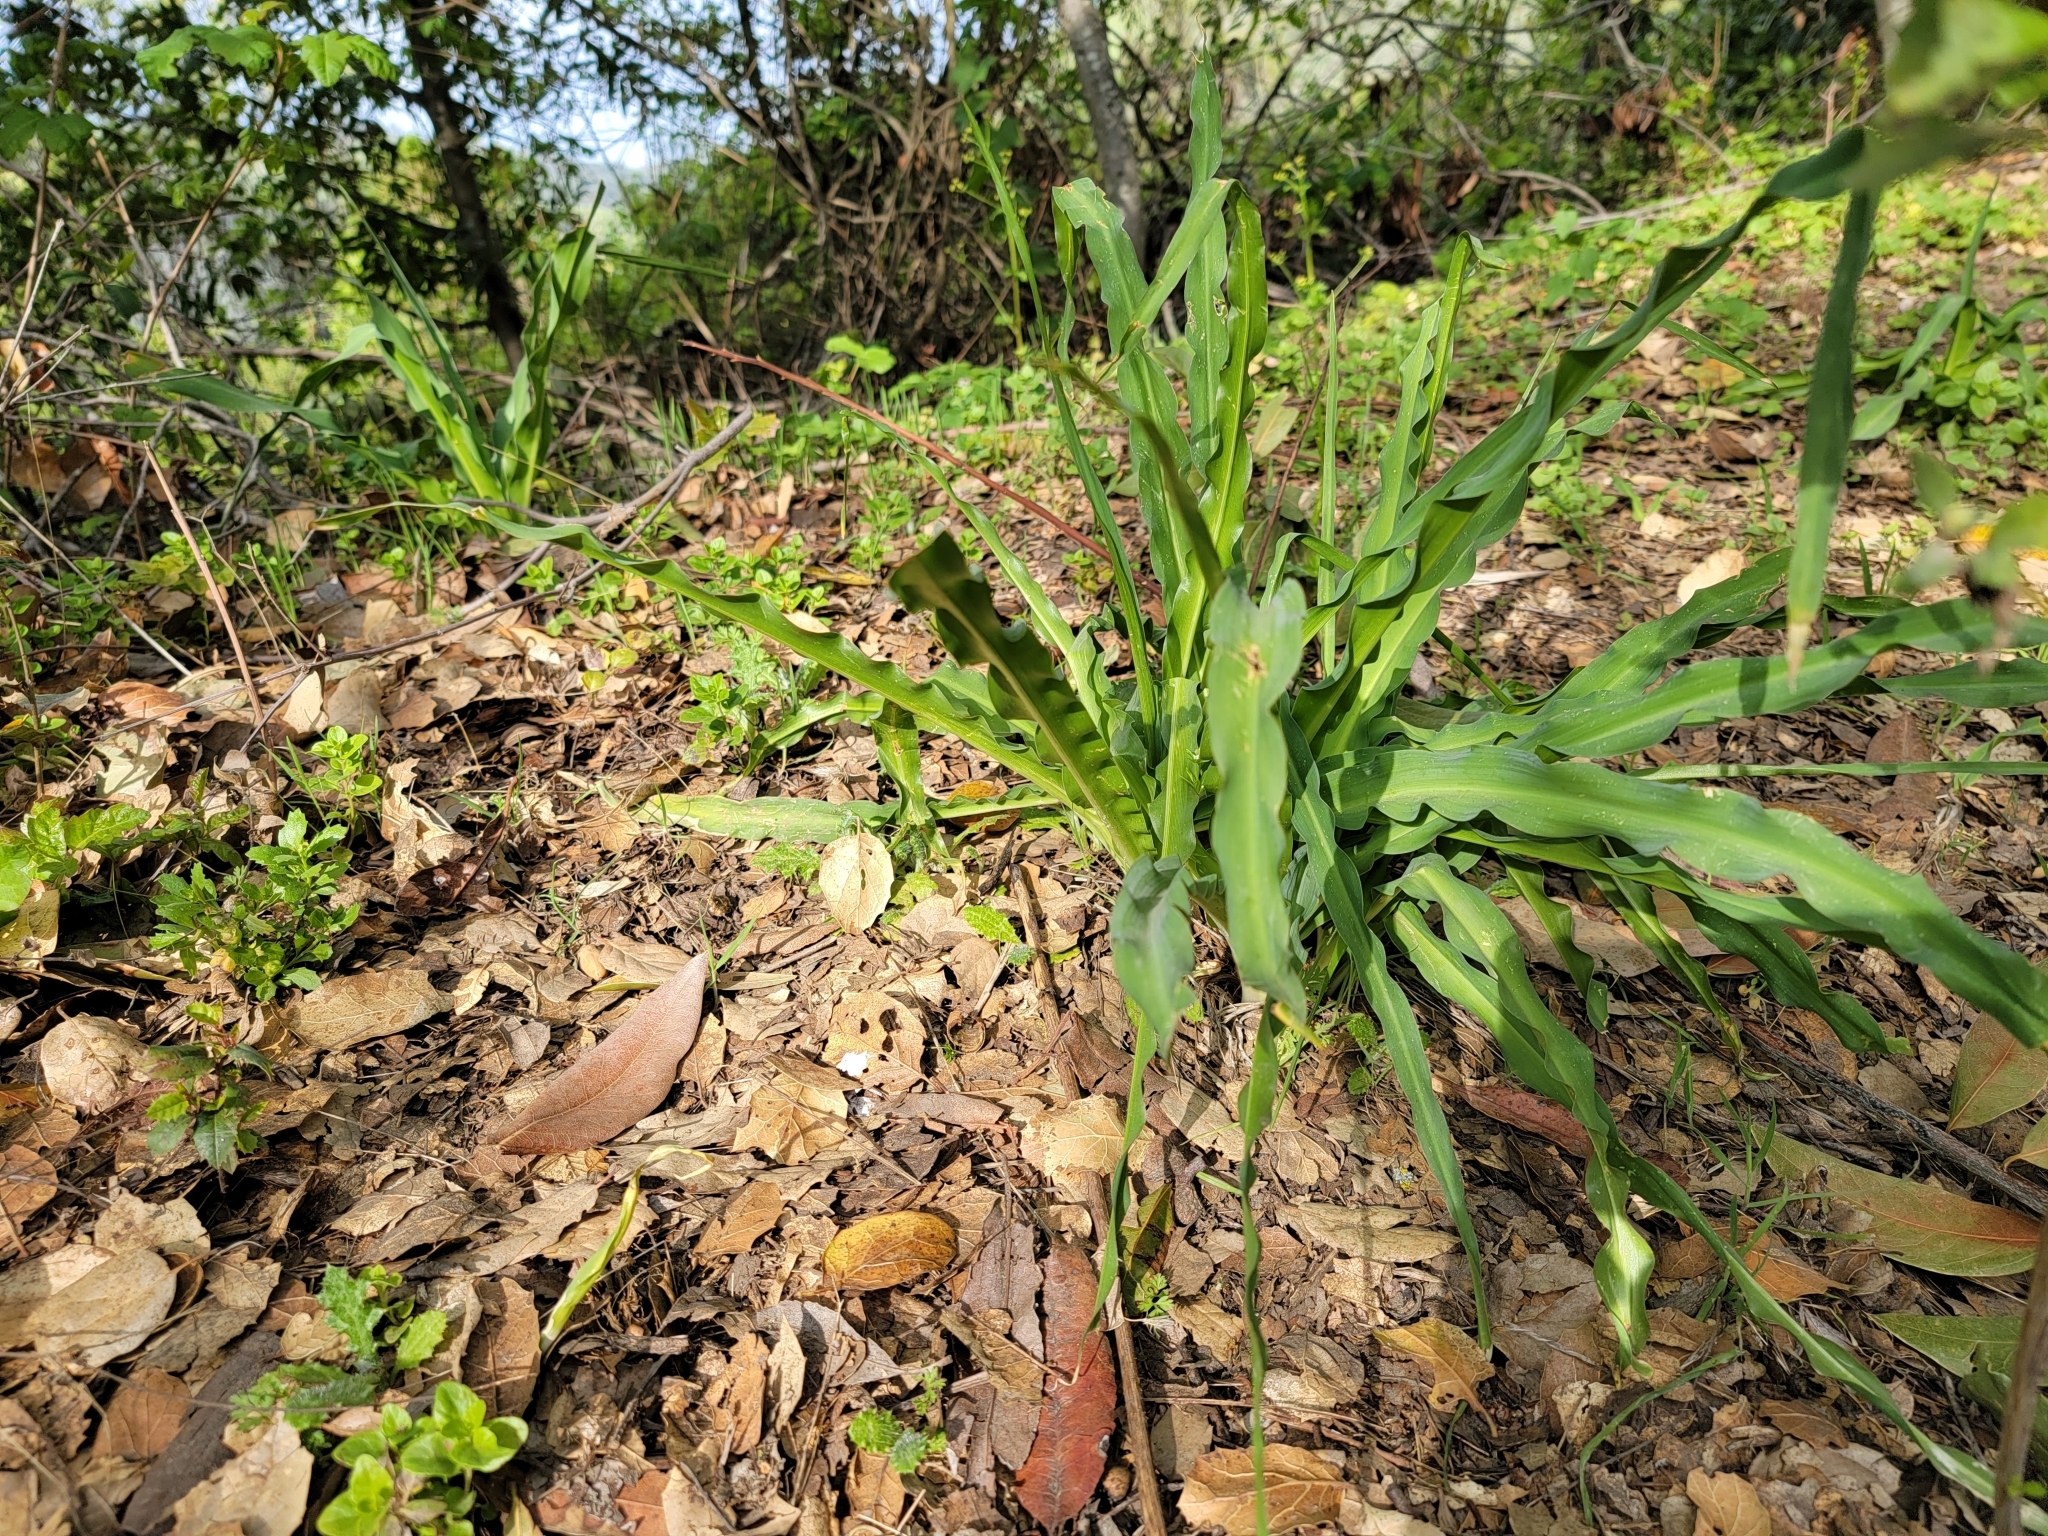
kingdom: Plantae
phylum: Tracheophyta
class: Liliopsida
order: Asparagales
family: Asparagaceae
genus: Chlorogalum
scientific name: Chlorogalum pomeridianum
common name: Amole
